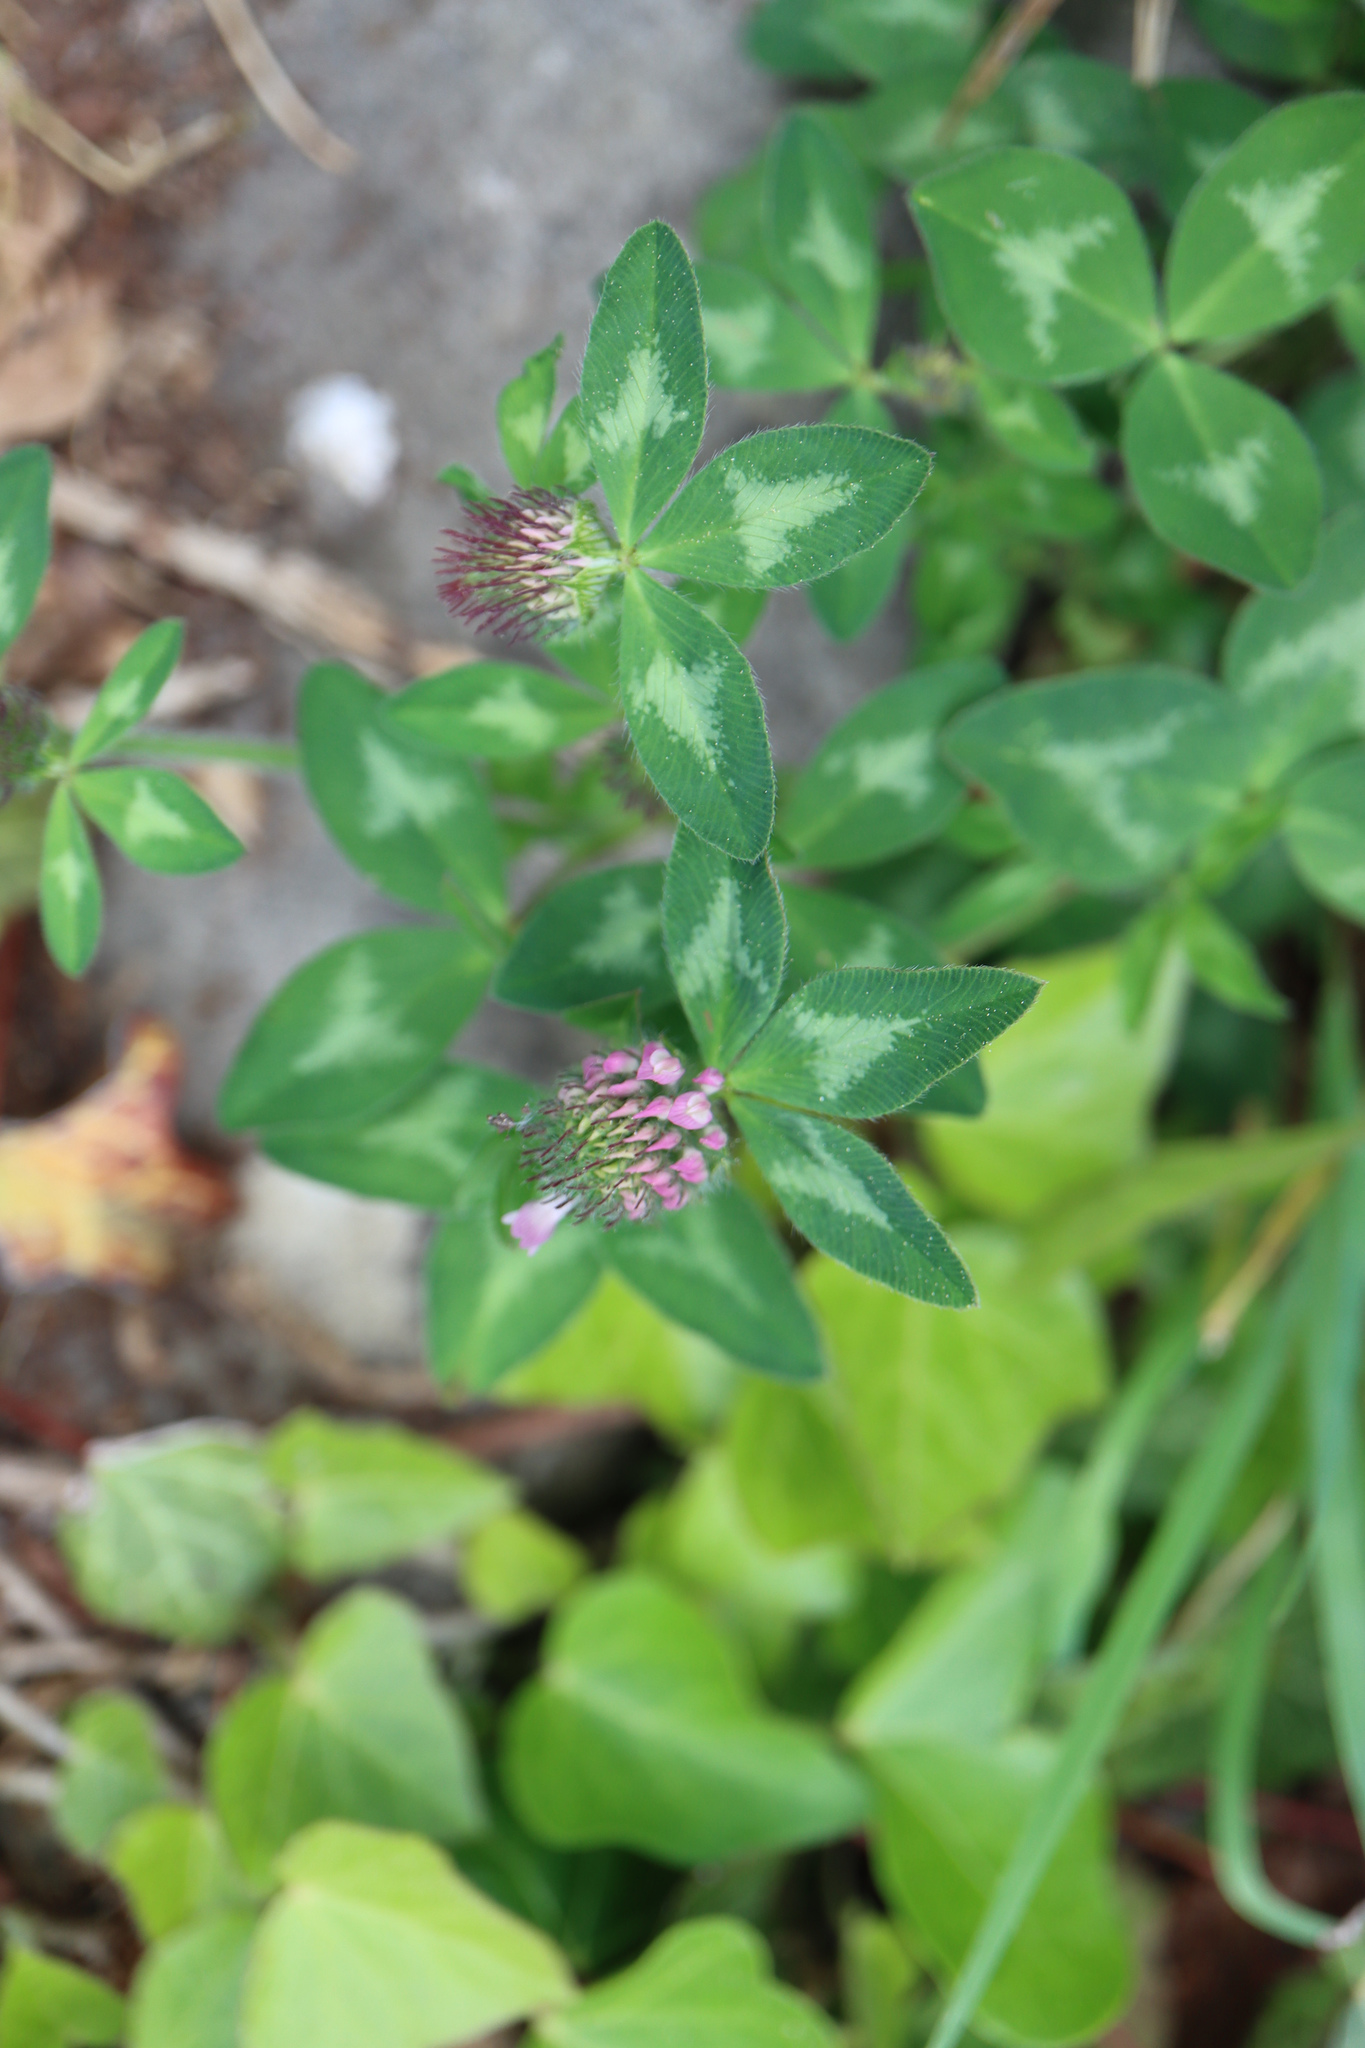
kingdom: Plantae
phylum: Tracheophyta
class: Magnoliopsida
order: Fabales
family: Fabaceae
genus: Trifolium
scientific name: Trifolium pratense
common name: Red clover
